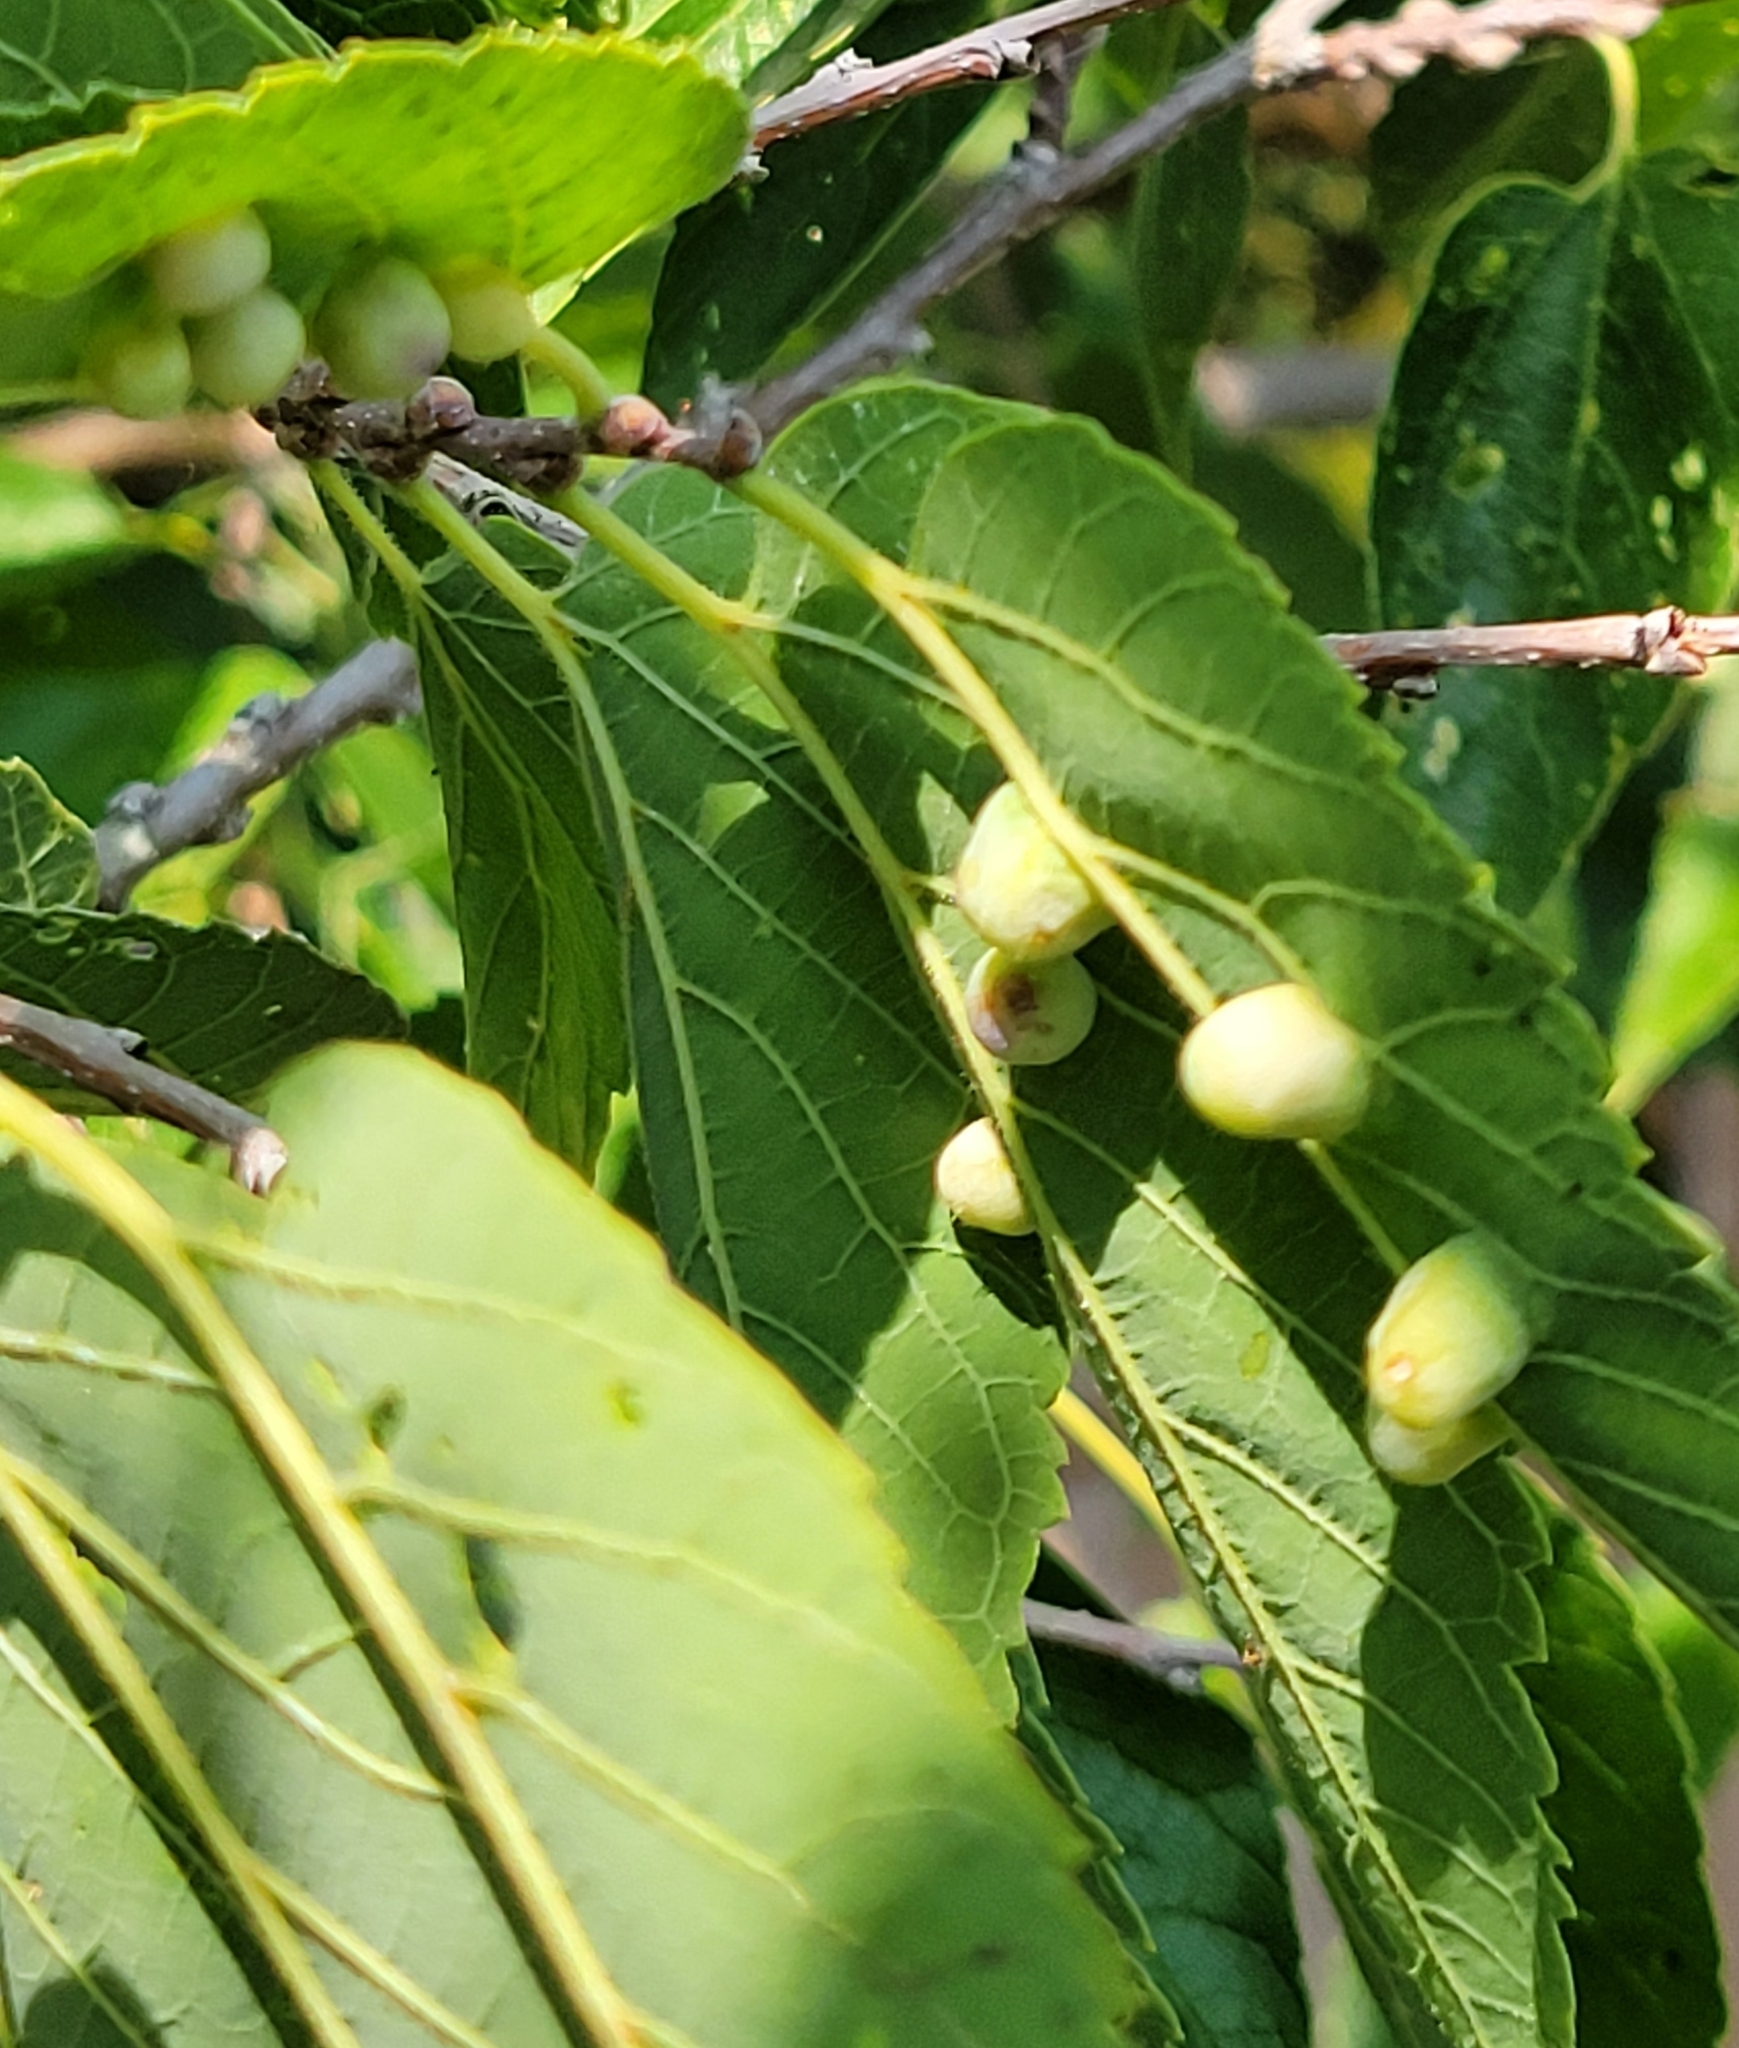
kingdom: Animalia
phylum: Arthropoda
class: Insecta
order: Hemiptera
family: Aphalaridae
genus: Pachypsylla
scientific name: Pachypsylla celtidismamma
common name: Hackberry nipplegall psyllid
